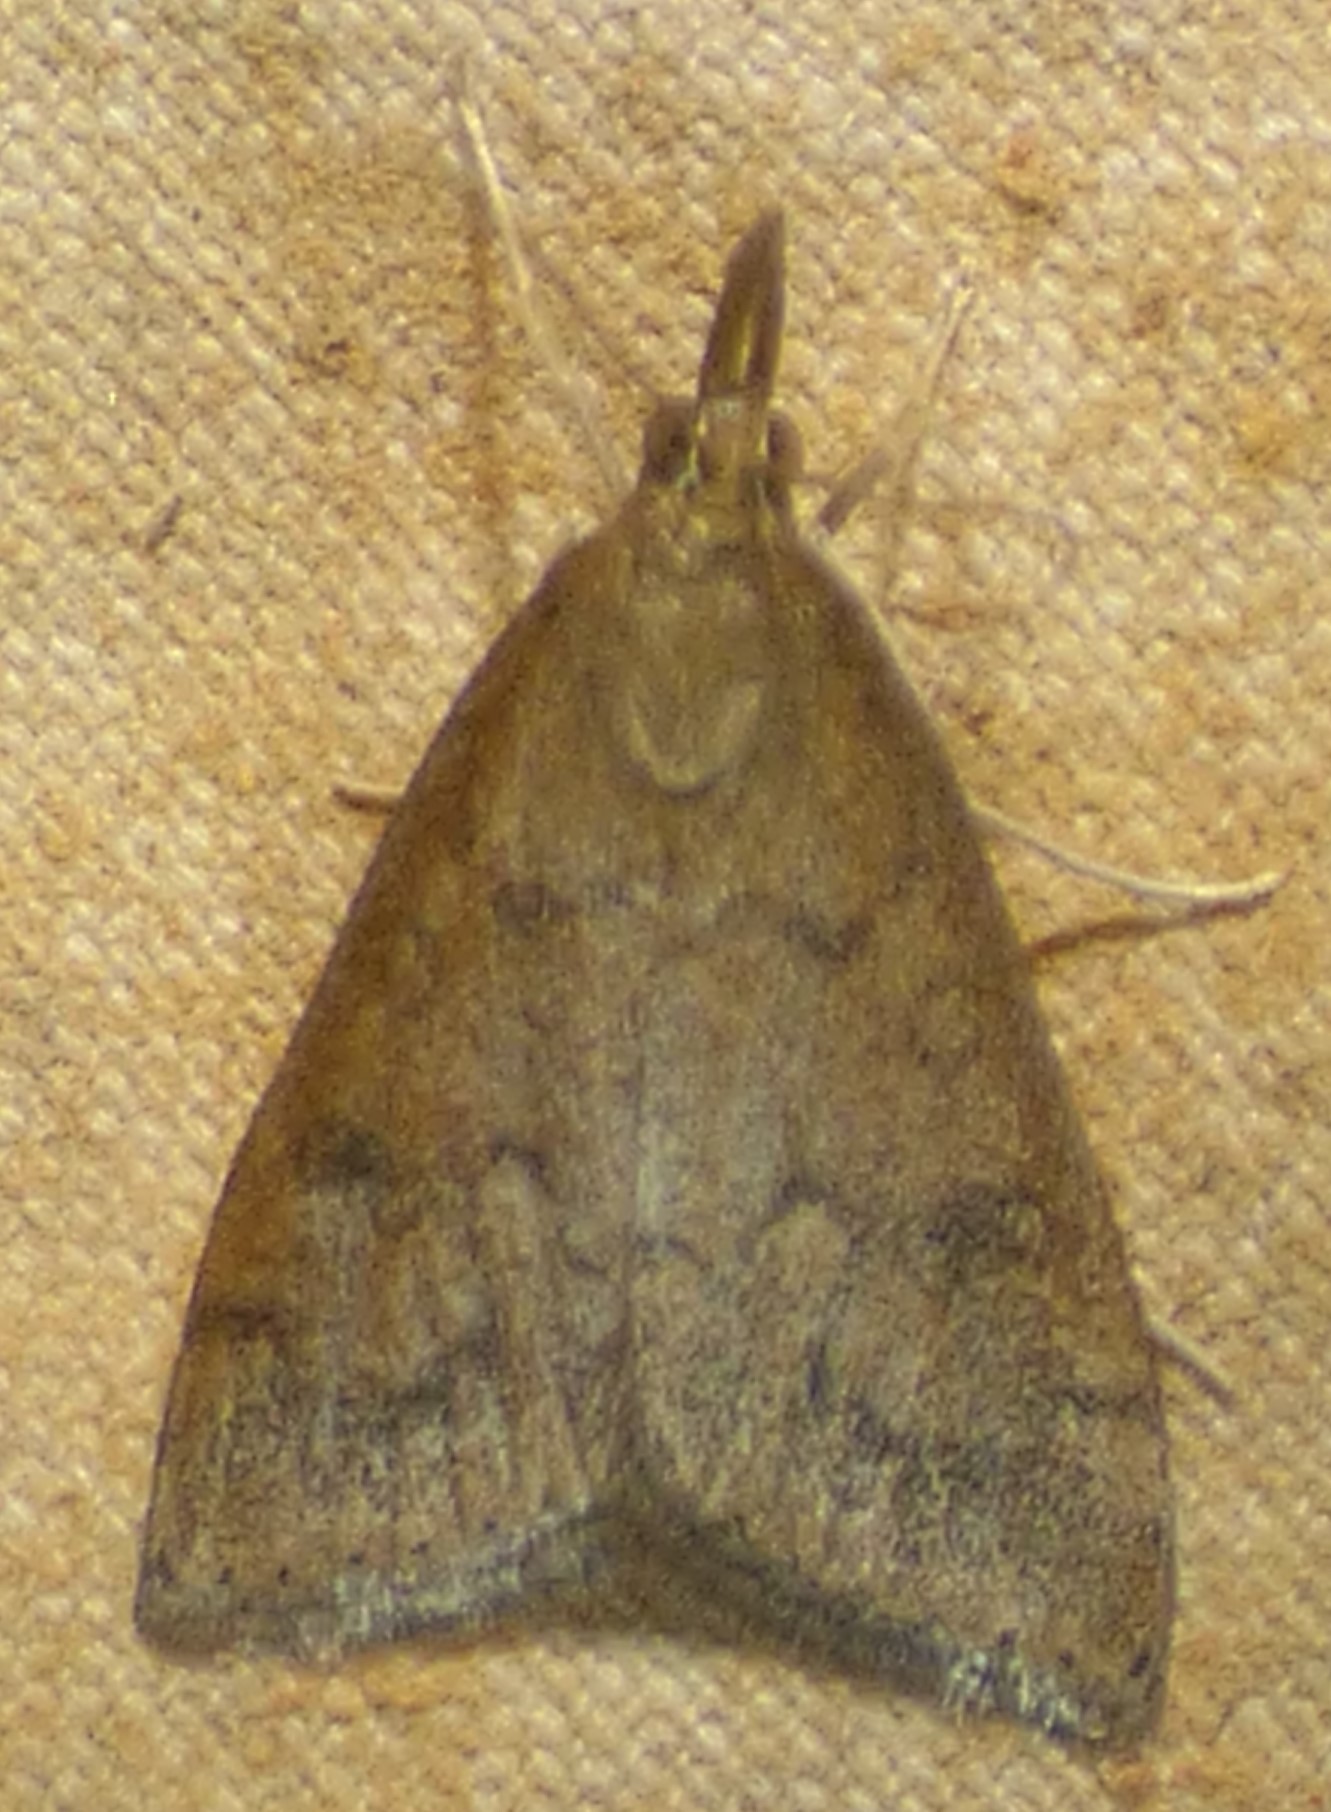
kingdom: Animalia
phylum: Arthropoda
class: Insecta
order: Lepidoptera
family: Crambidae
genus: Udea
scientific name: Udea rubigalis
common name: Celery leaftier moth
